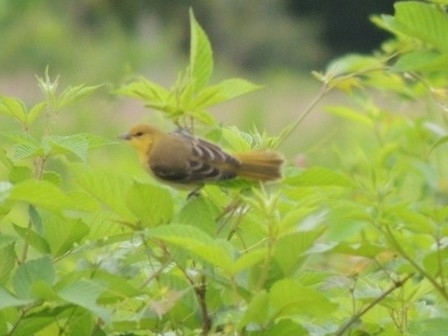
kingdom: Animalia
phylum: Chordata
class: Aves
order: Passeriformes
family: Icteridae
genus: Icterus
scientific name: Icterus galbula
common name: Baltimore oriole
